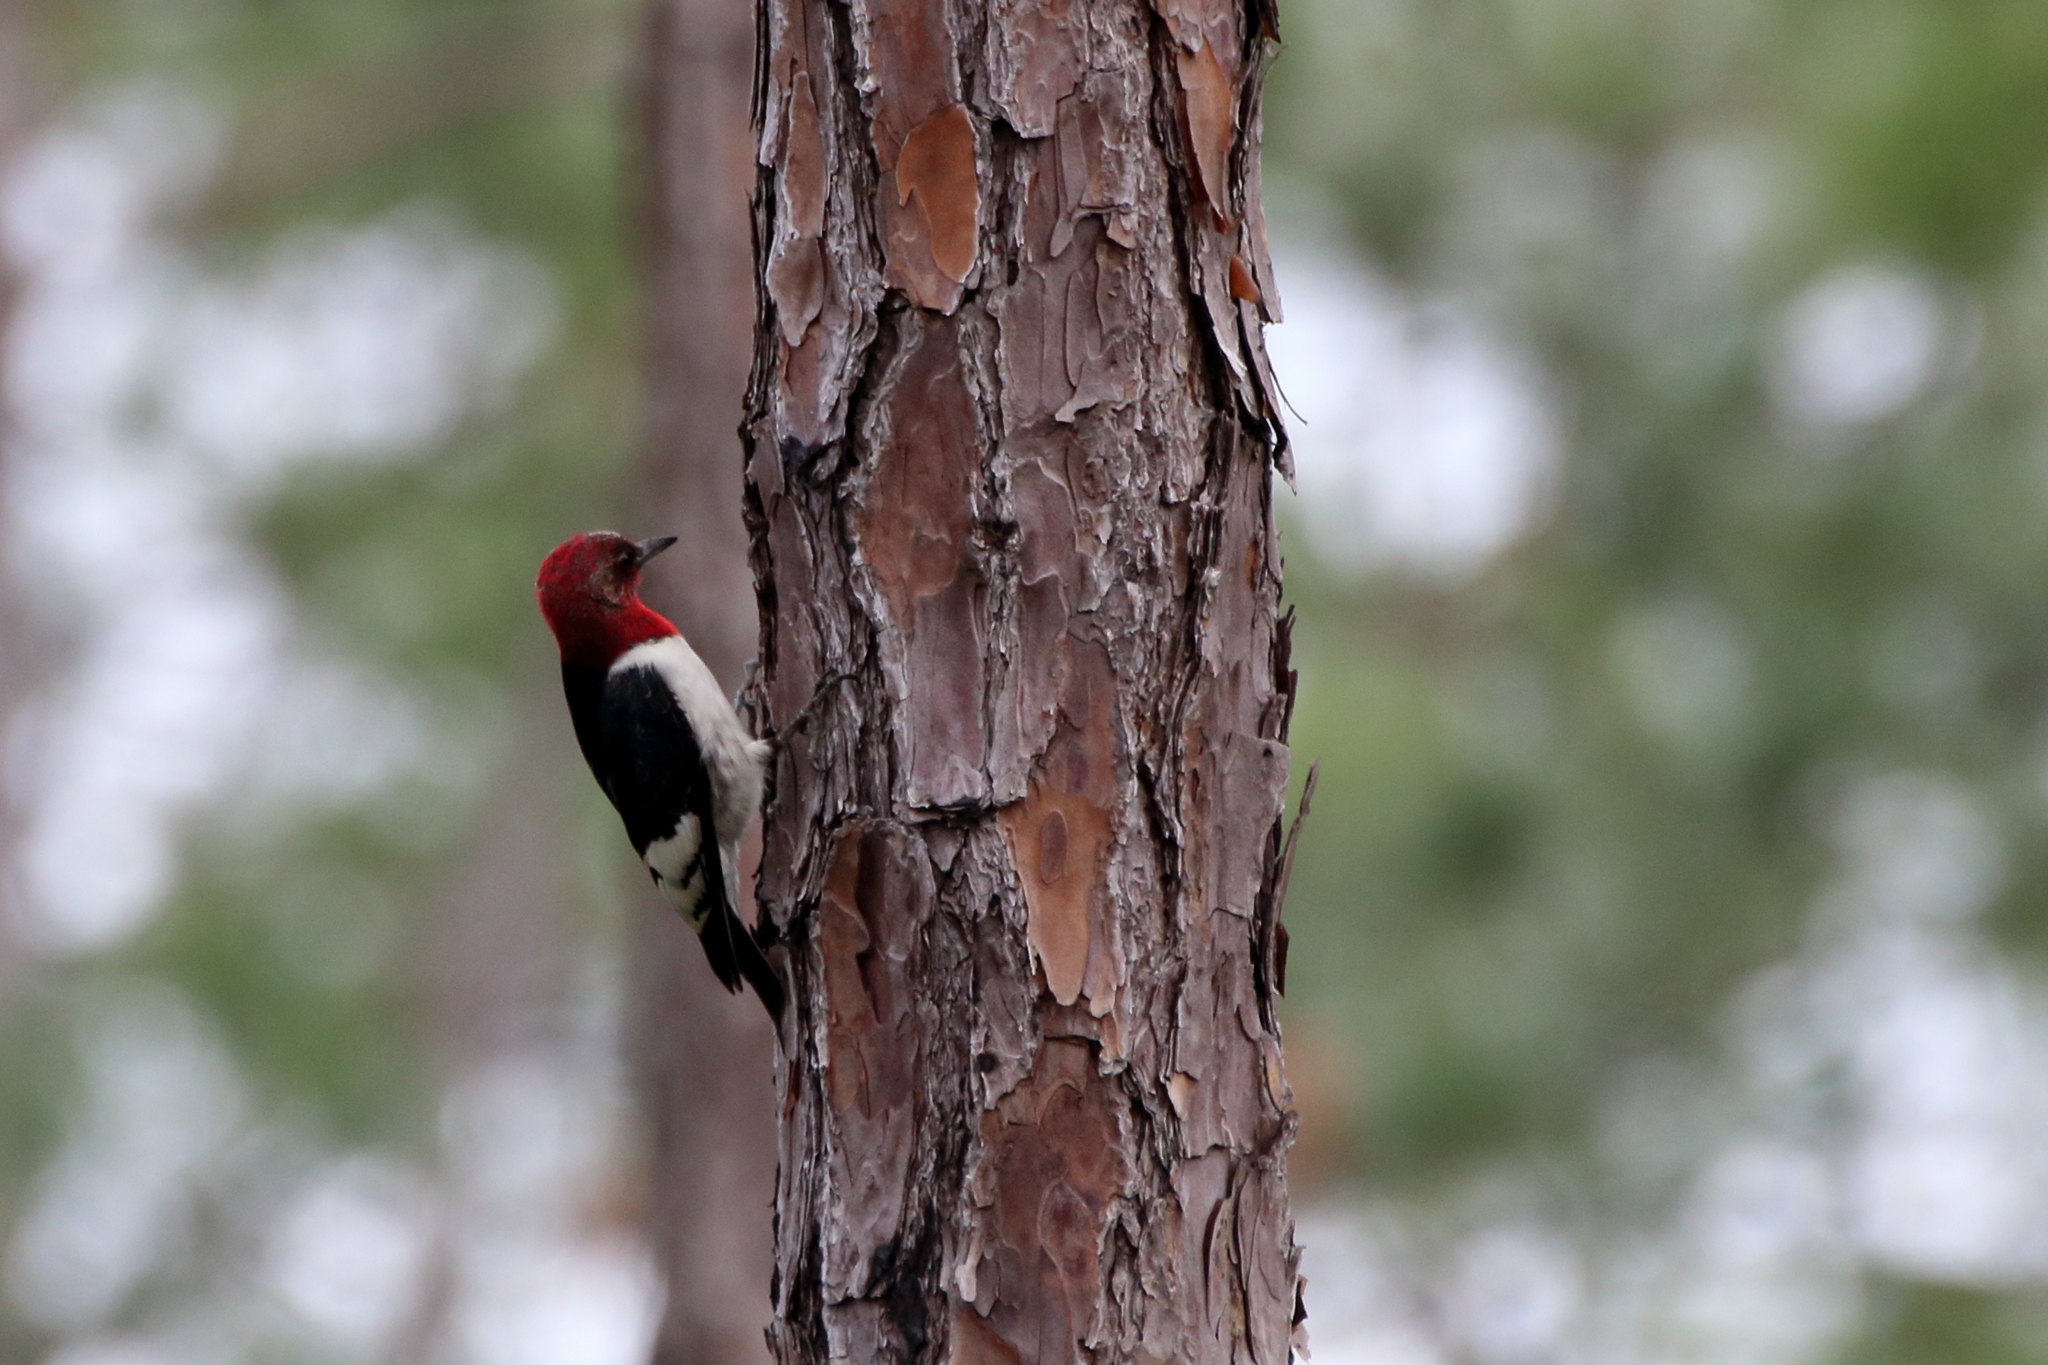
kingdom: Animalia
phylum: Chordata
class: Aves
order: Piciformes
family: Picidae
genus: Melanerpes
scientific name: Melanerpes erythrocephalus
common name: Red-headed woodpecker
